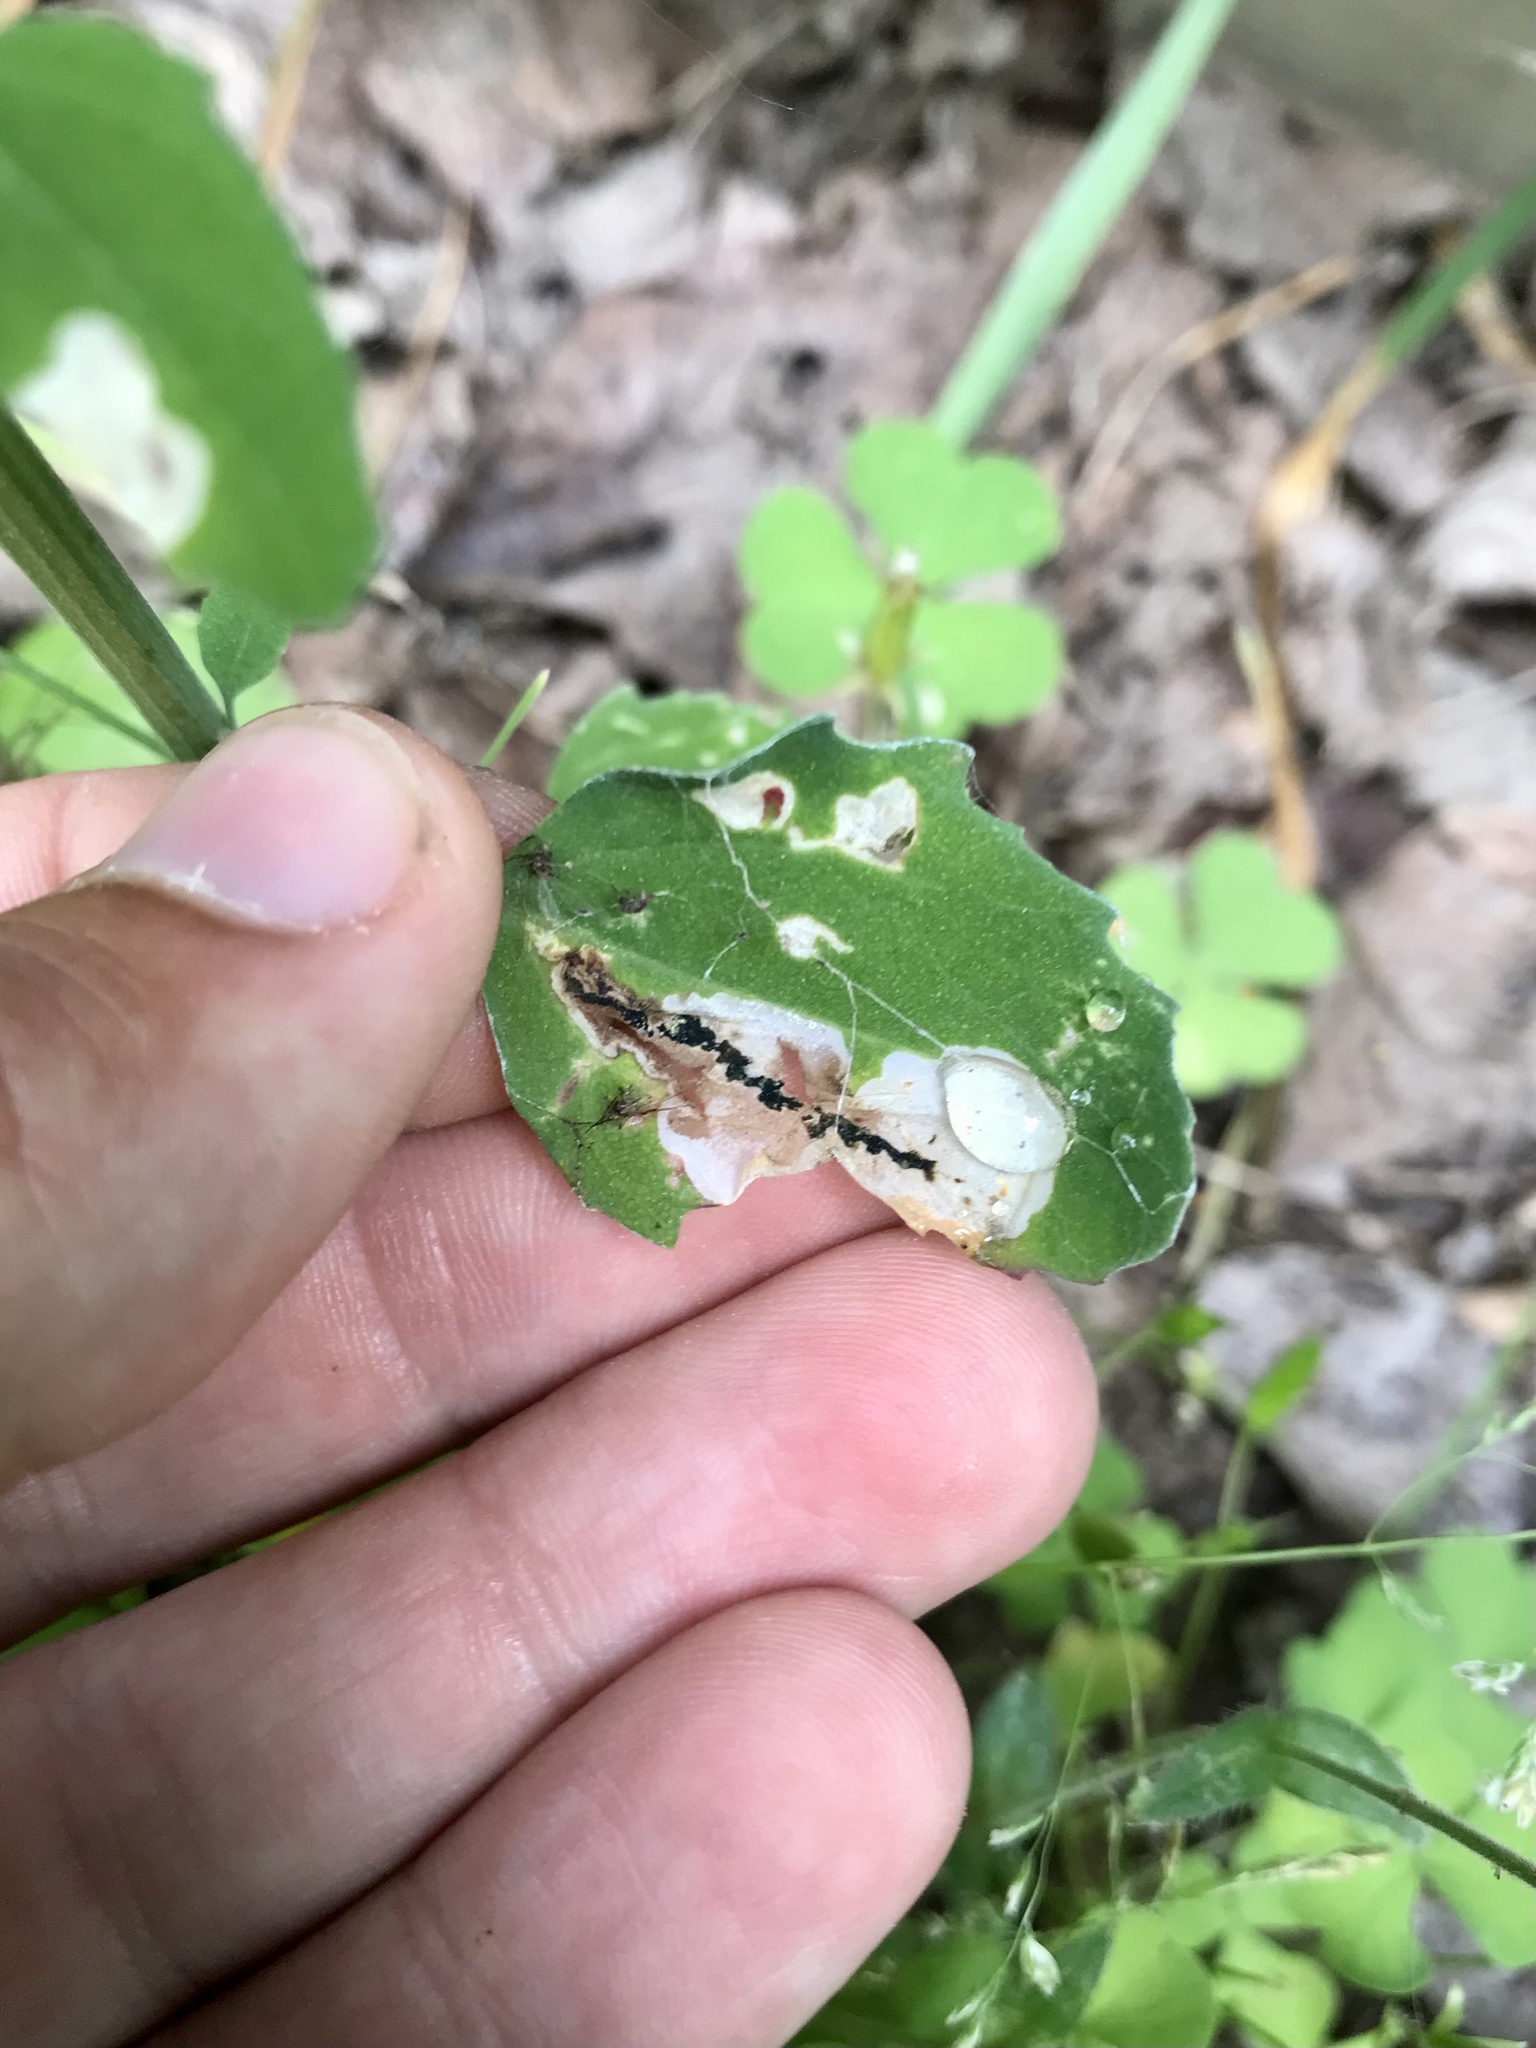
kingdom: Animalia
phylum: Arthropoda
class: Insecta
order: Lepidoptera
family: Gelechiidae
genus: Chrysoesthia
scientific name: Chrysoesthia sexguttella
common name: Moth
